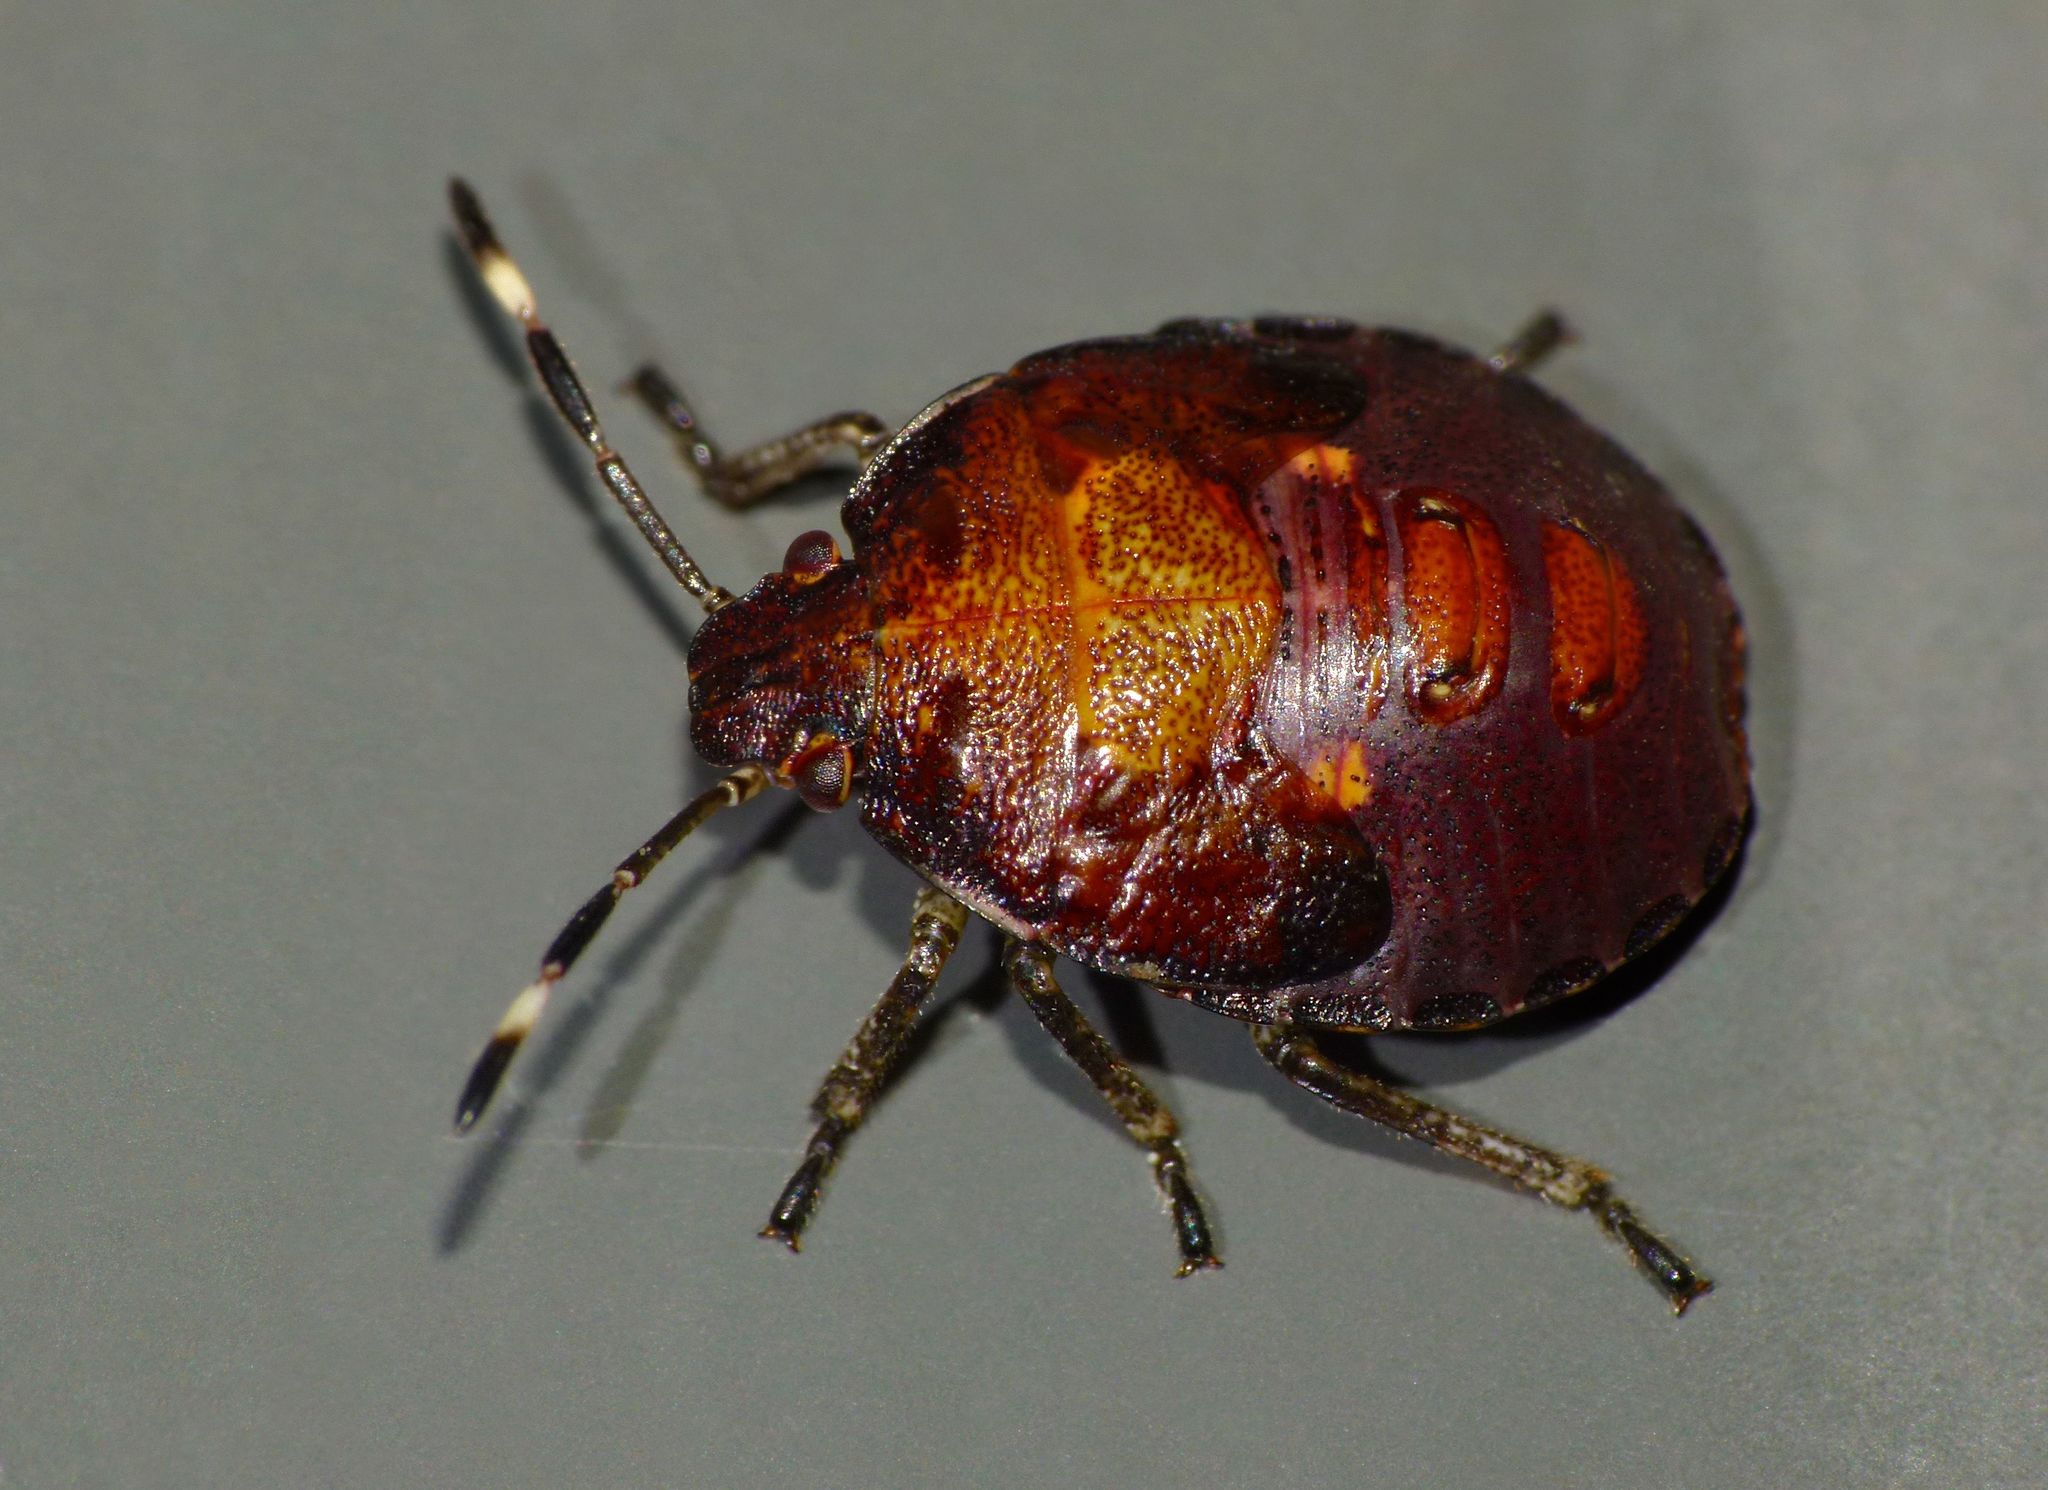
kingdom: Animalia
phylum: Arthropoda
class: Insecta
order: Hemiptera
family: Pentatomidae
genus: Monteithiella
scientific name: Monteithiella
